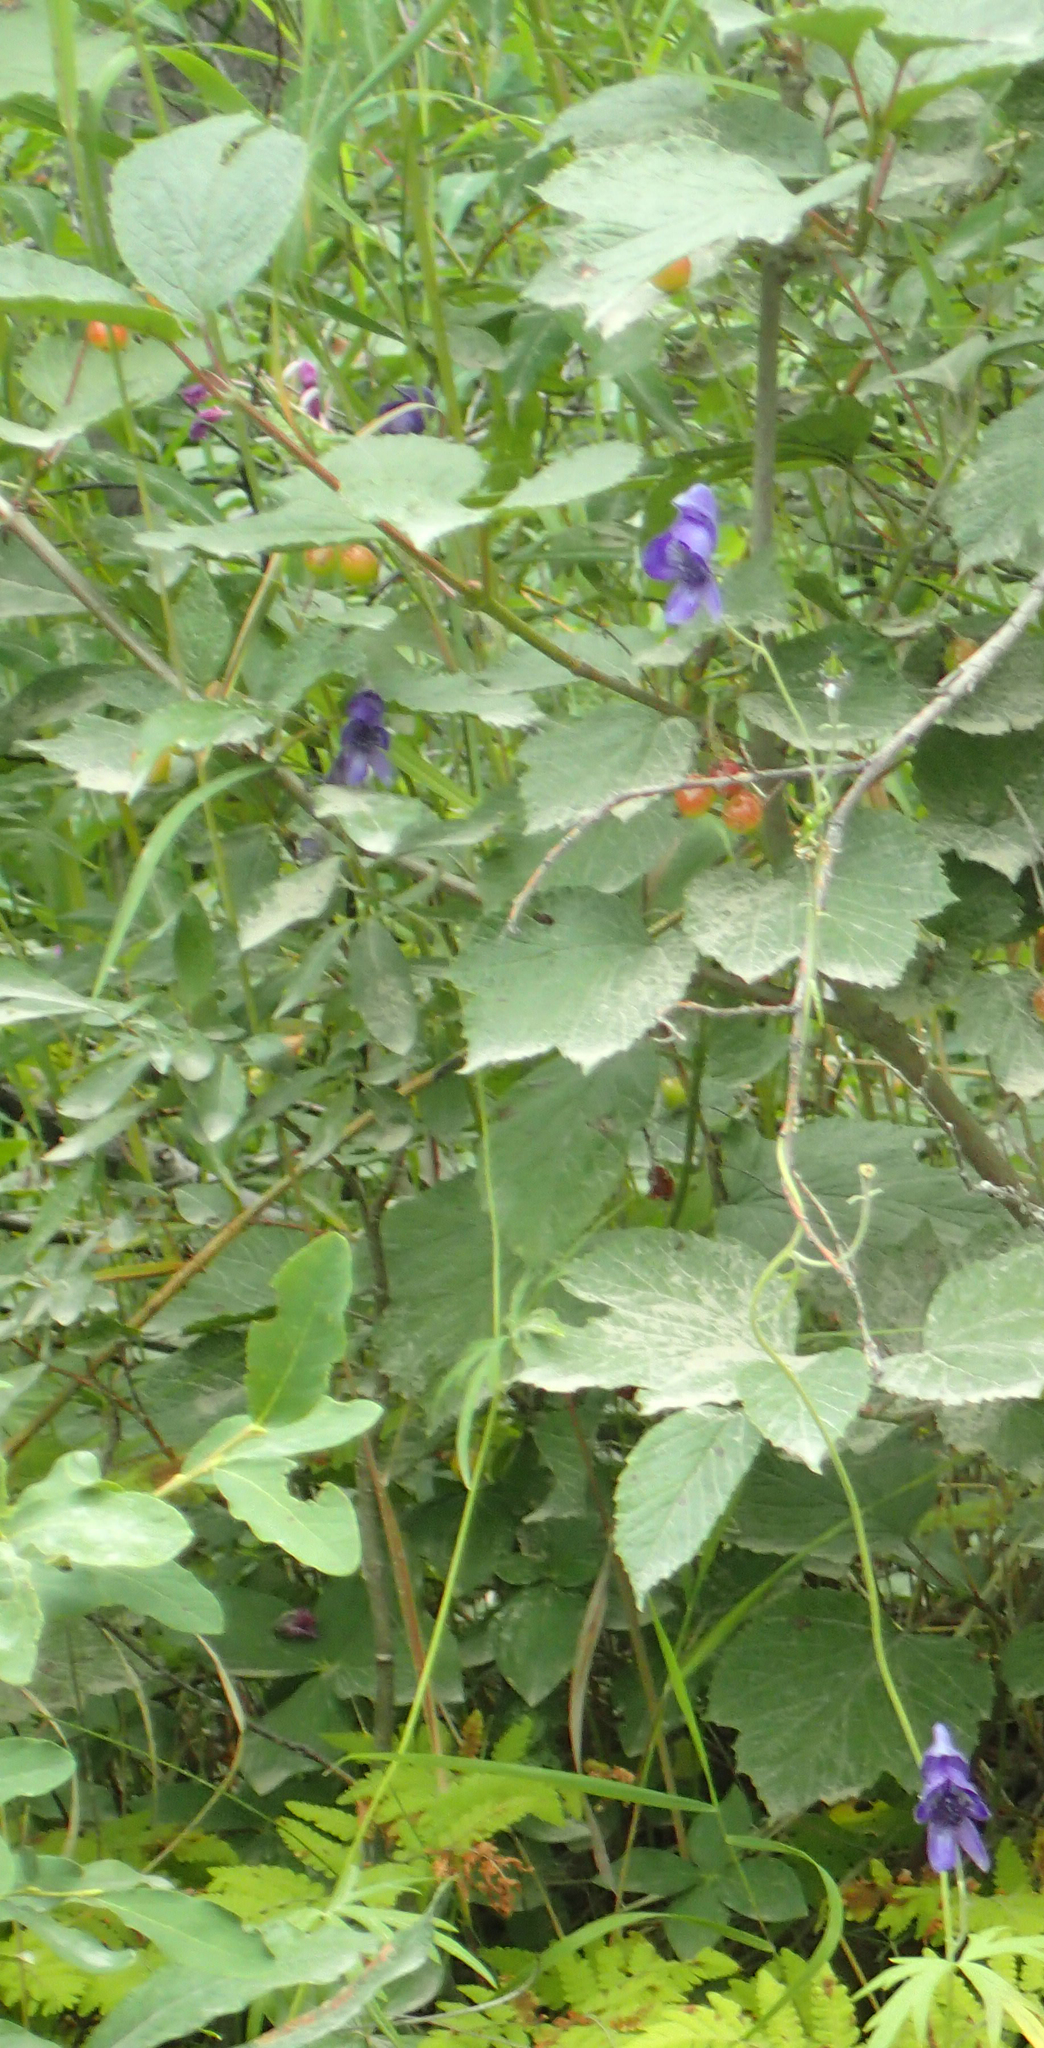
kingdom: Plantae
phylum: Tracheophyta
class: Magnoliopsida
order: Ranunculales
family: Ranunculaceae
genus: Aconitum
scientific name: Aconitum delphiniifolium
